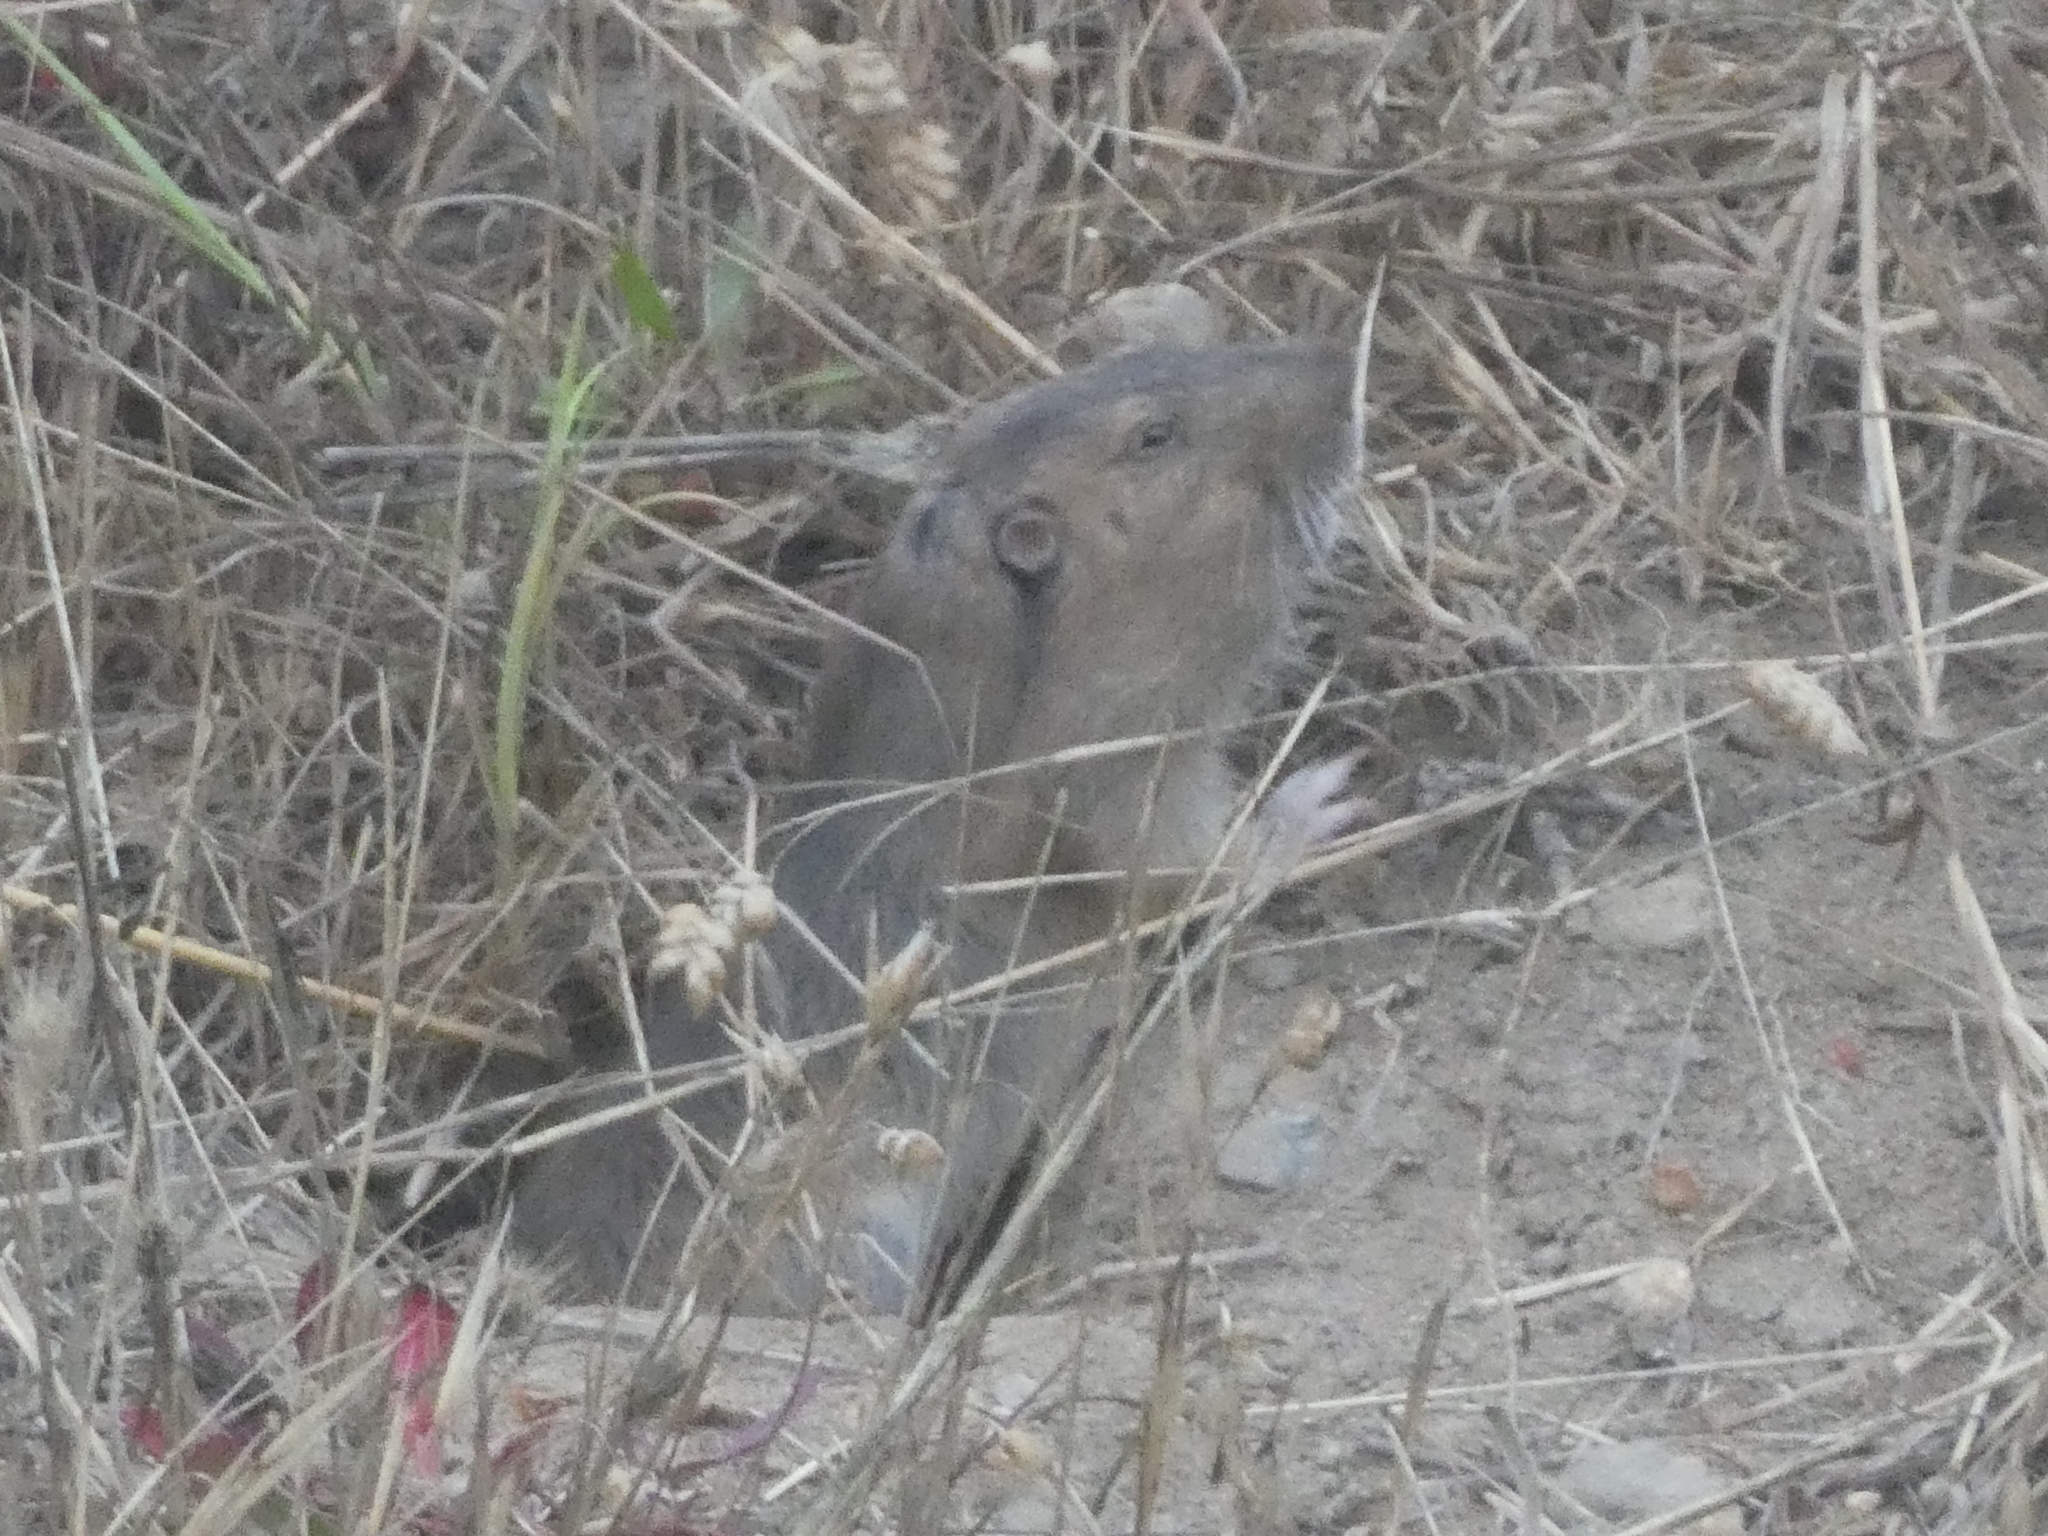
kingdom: Animalia
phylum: Chordata
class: Mammalia
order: Rodentia
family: Geomyidae
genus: Thomomys
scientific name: Thomomys bottae
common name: Botta's pocket gopher
